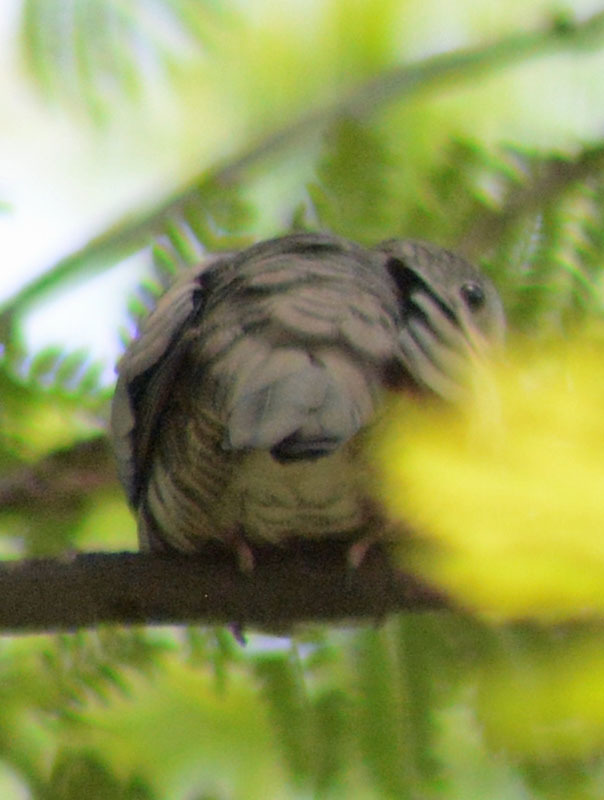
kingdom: Animalia
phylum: Chordata
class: Aves
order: Columbiformes
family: Columbidae
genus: Columbina
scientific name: Columbina inca
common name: Inca dove
